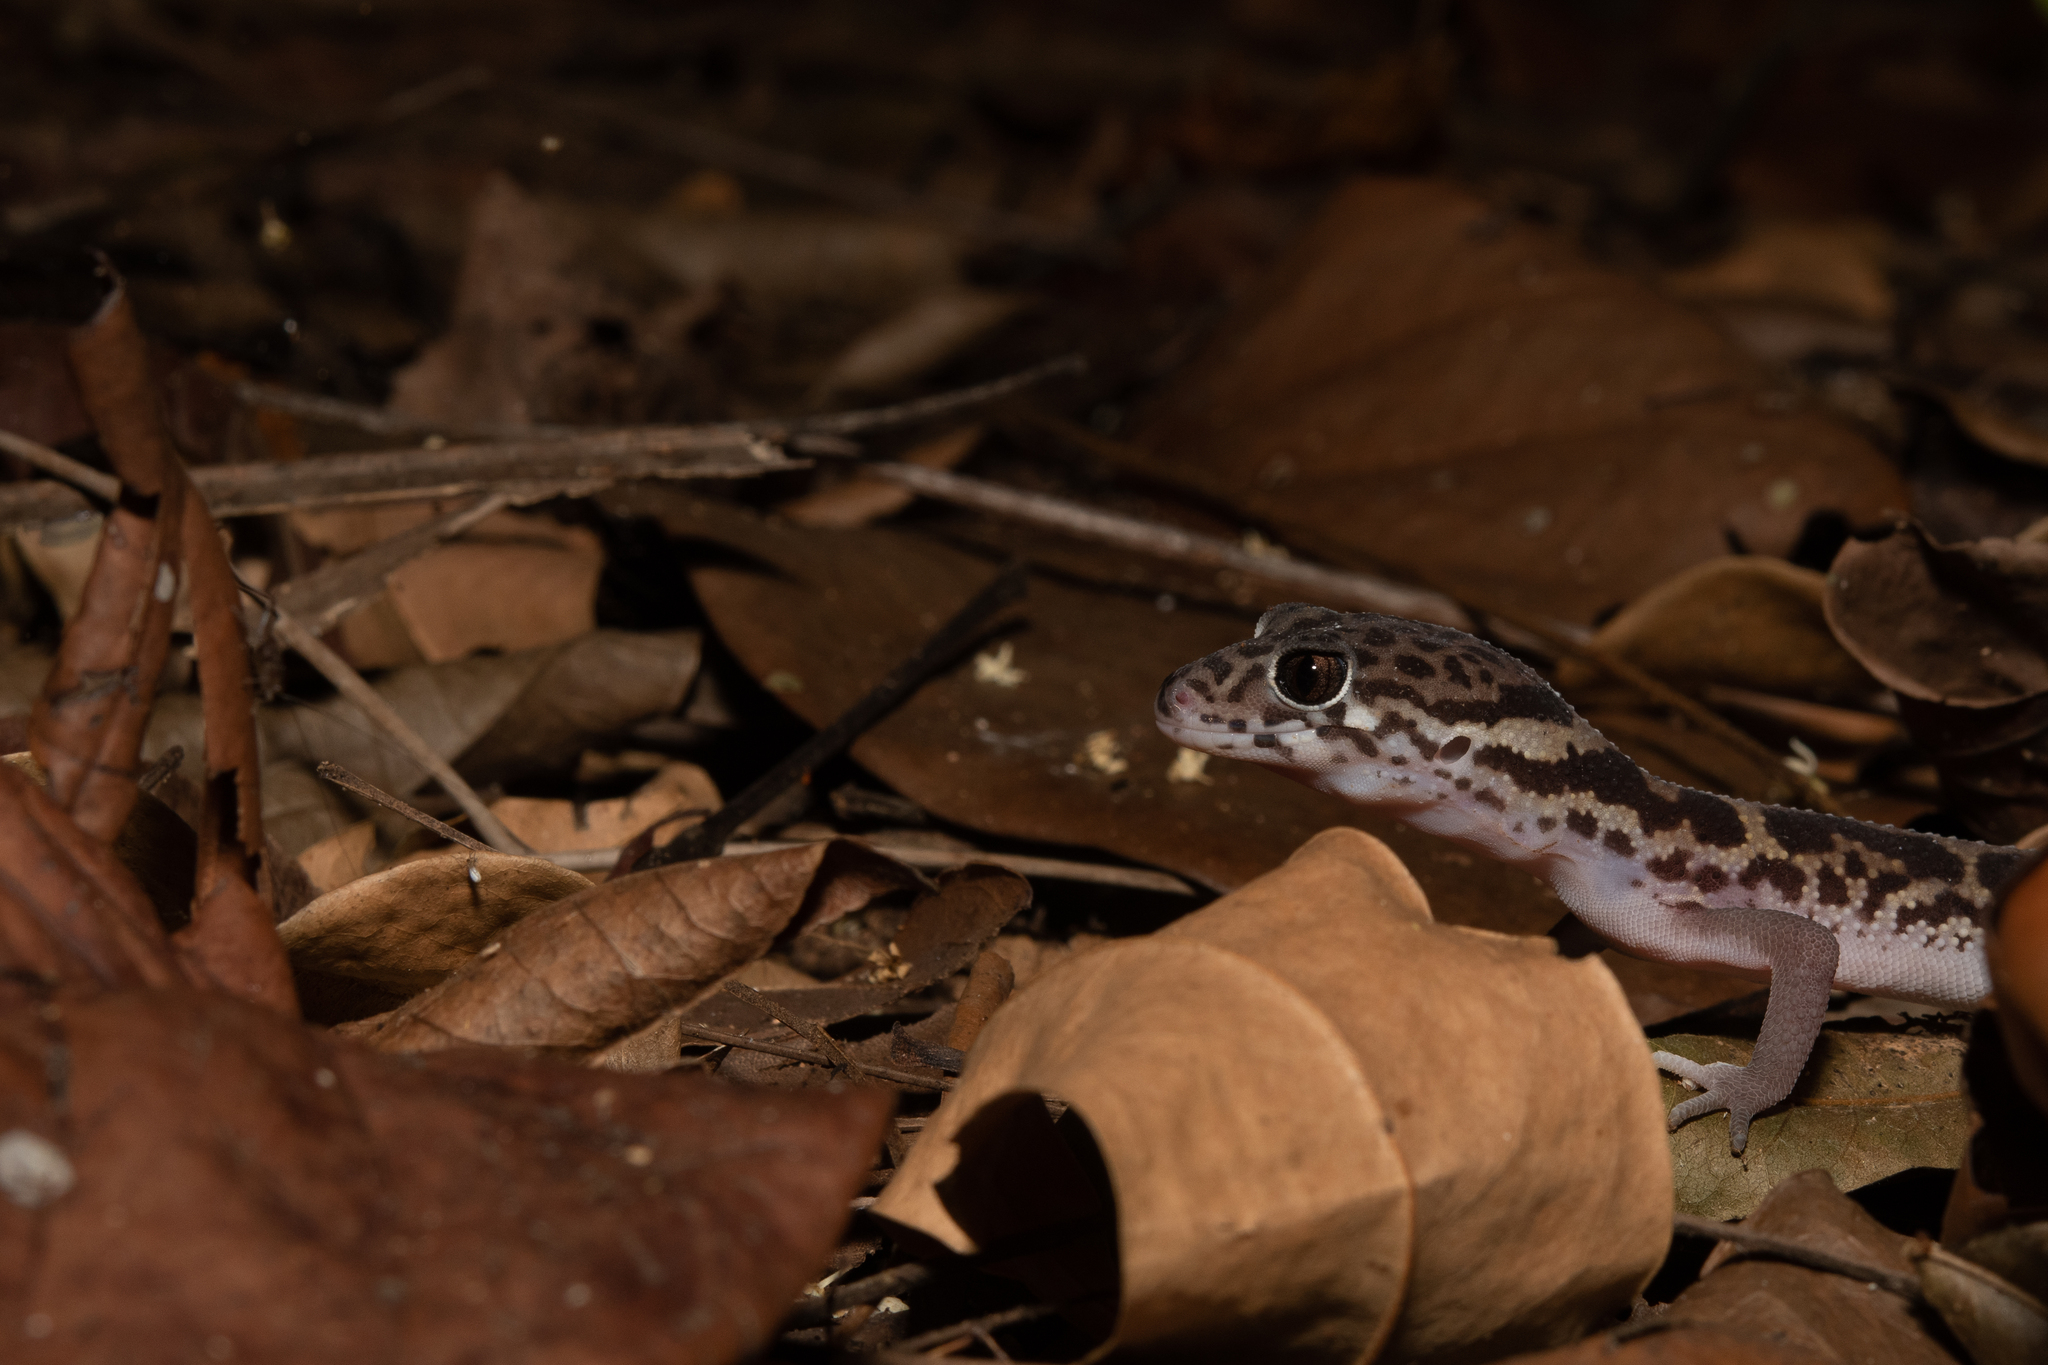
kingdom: Animalia
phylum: Chordata
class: Squamata
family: Eublepharidae
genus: Coleonyx
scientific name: Coleonyx mitratus
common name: Central american banded gecko
